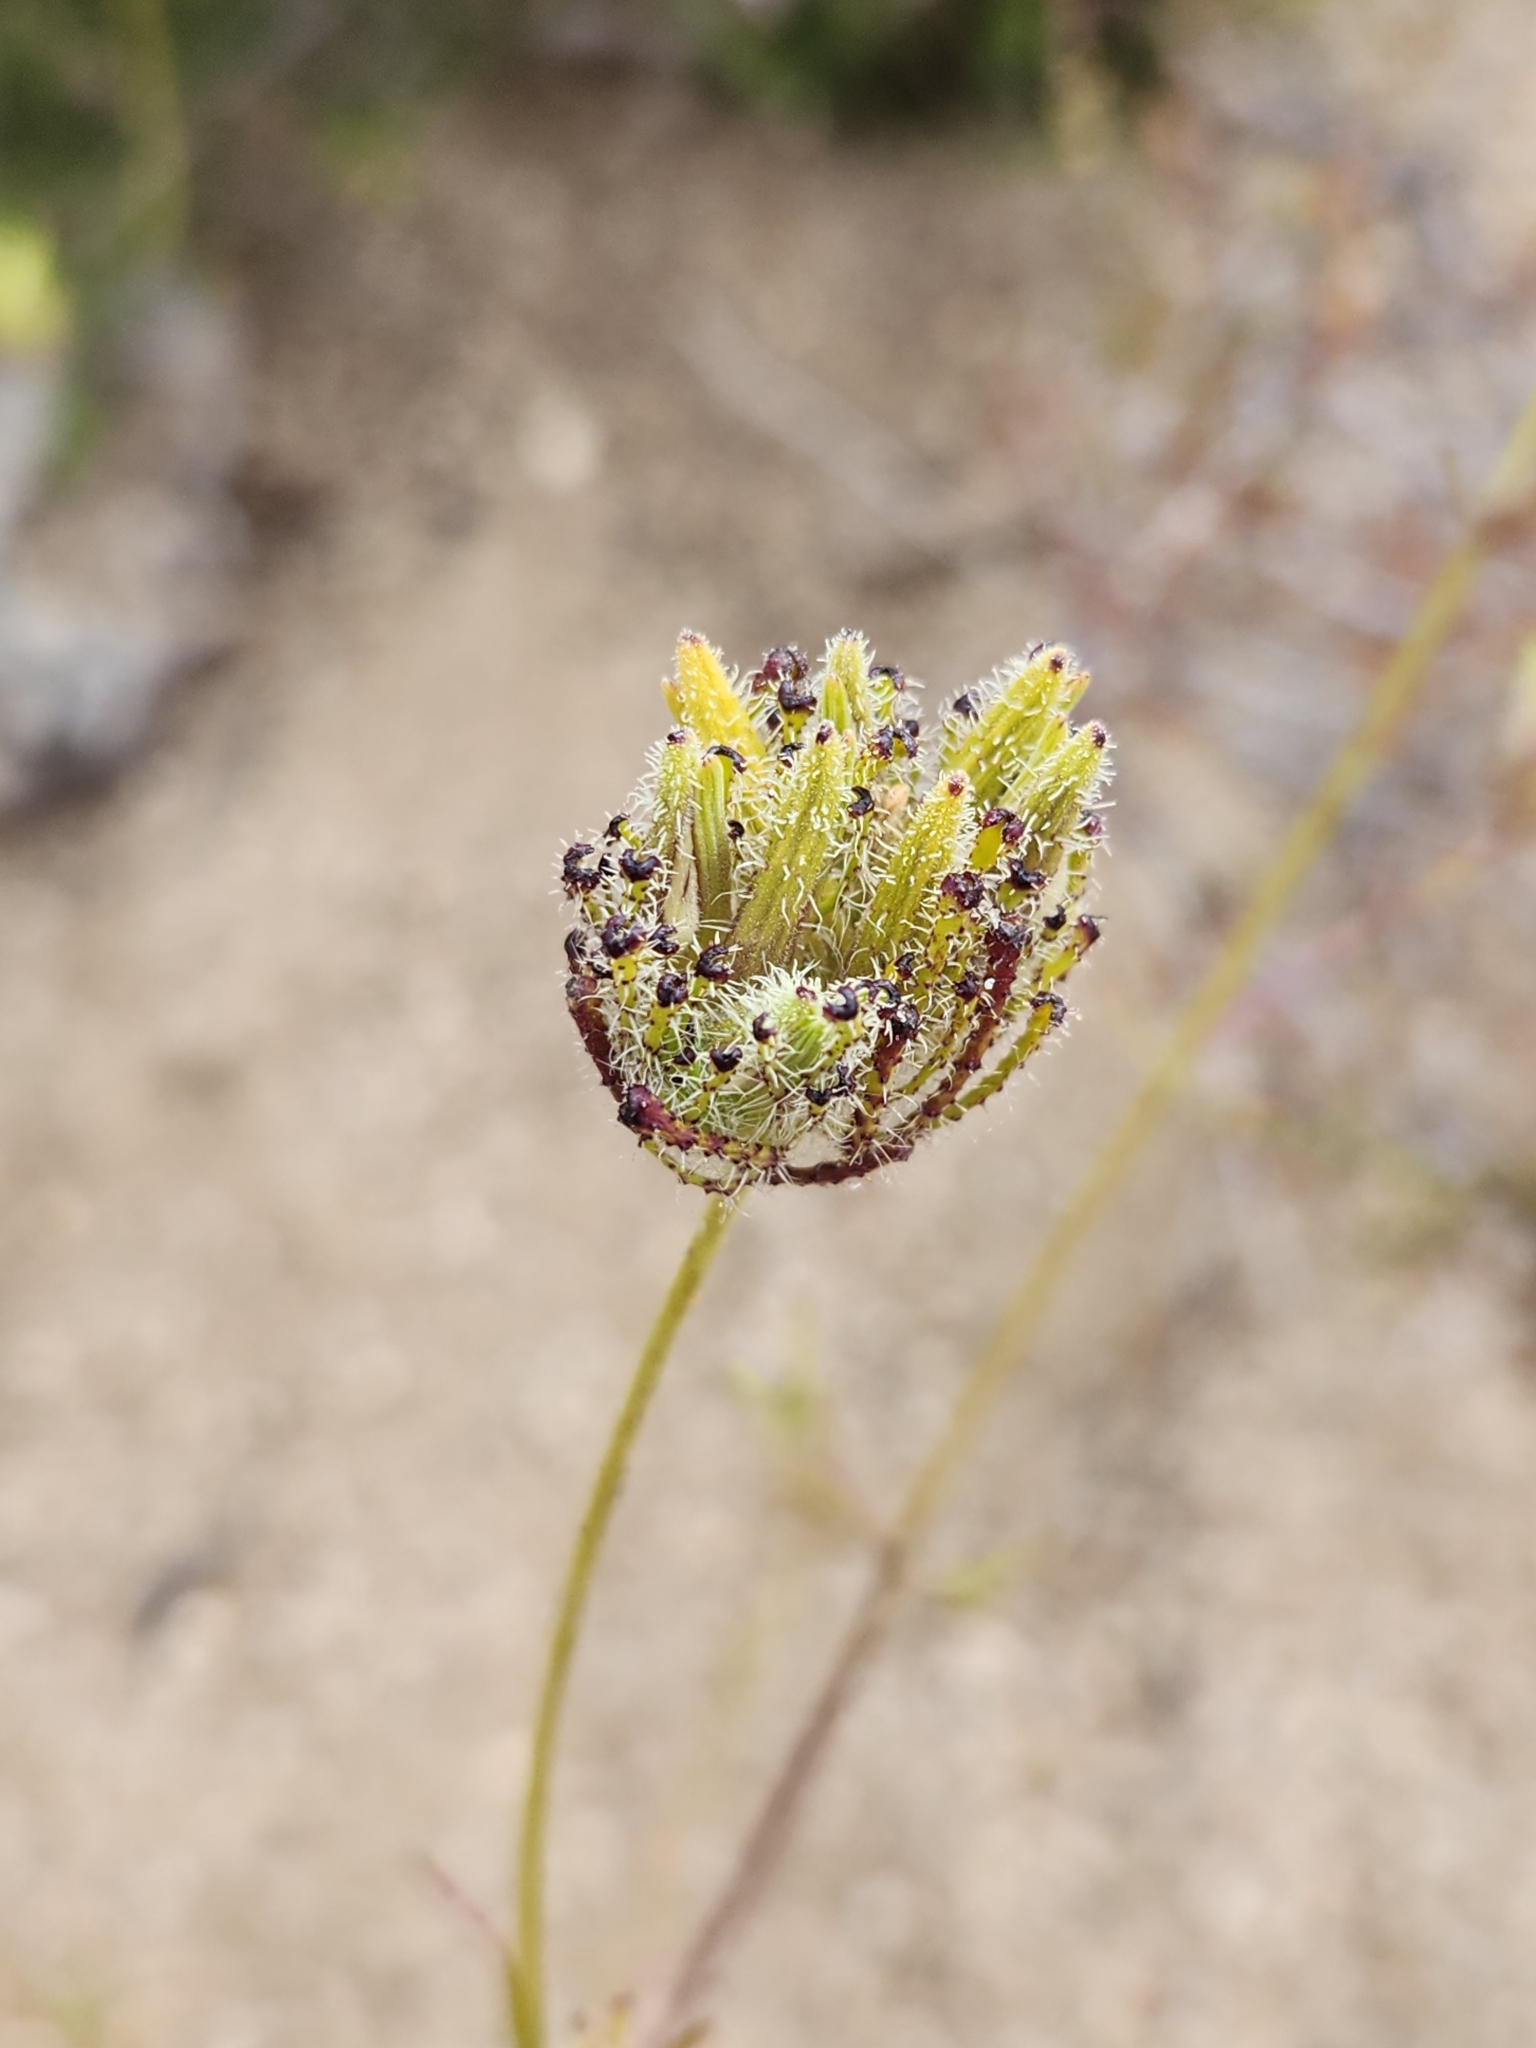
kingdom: Plantae
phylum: Tracheophyta
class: Magnoliopsida
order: Lamiales
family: Orobanchaceae
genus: Cordylanthus
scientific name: Cordylanthus rigidus
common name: Stiff-branch bird's-beak
